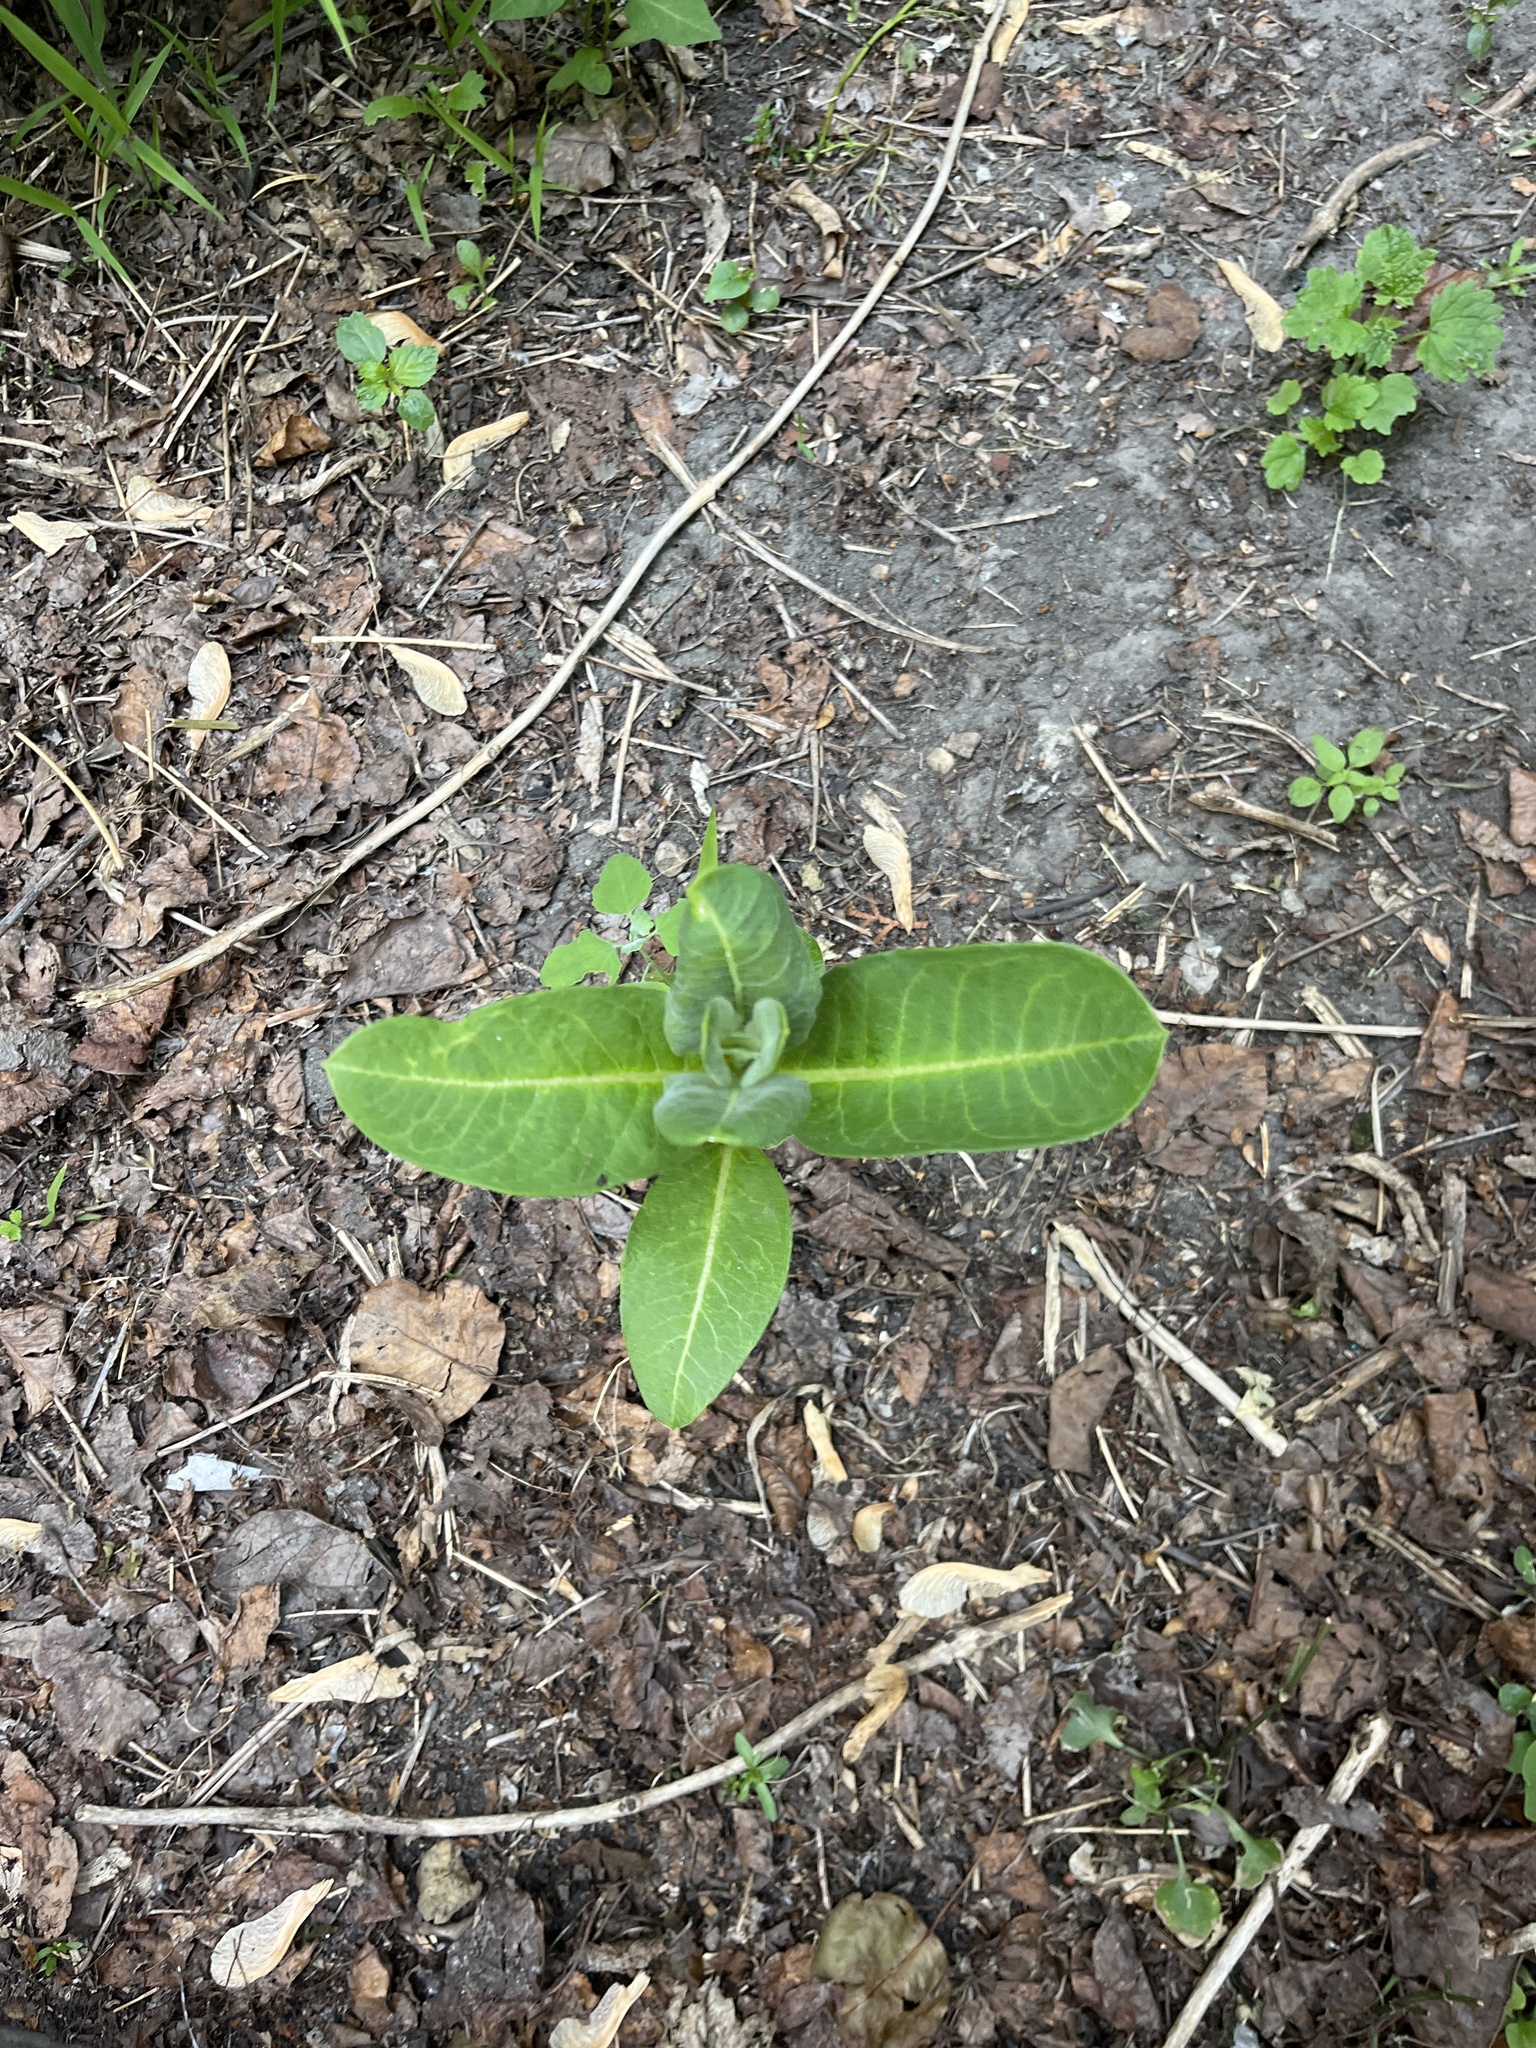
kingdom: Plantae
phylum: Tracheophyta
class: Magnoliopsida
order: Gentianales
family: Apocynaceae
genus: Asclepias
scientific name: Asclepias syriaca
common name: Common milkweed
